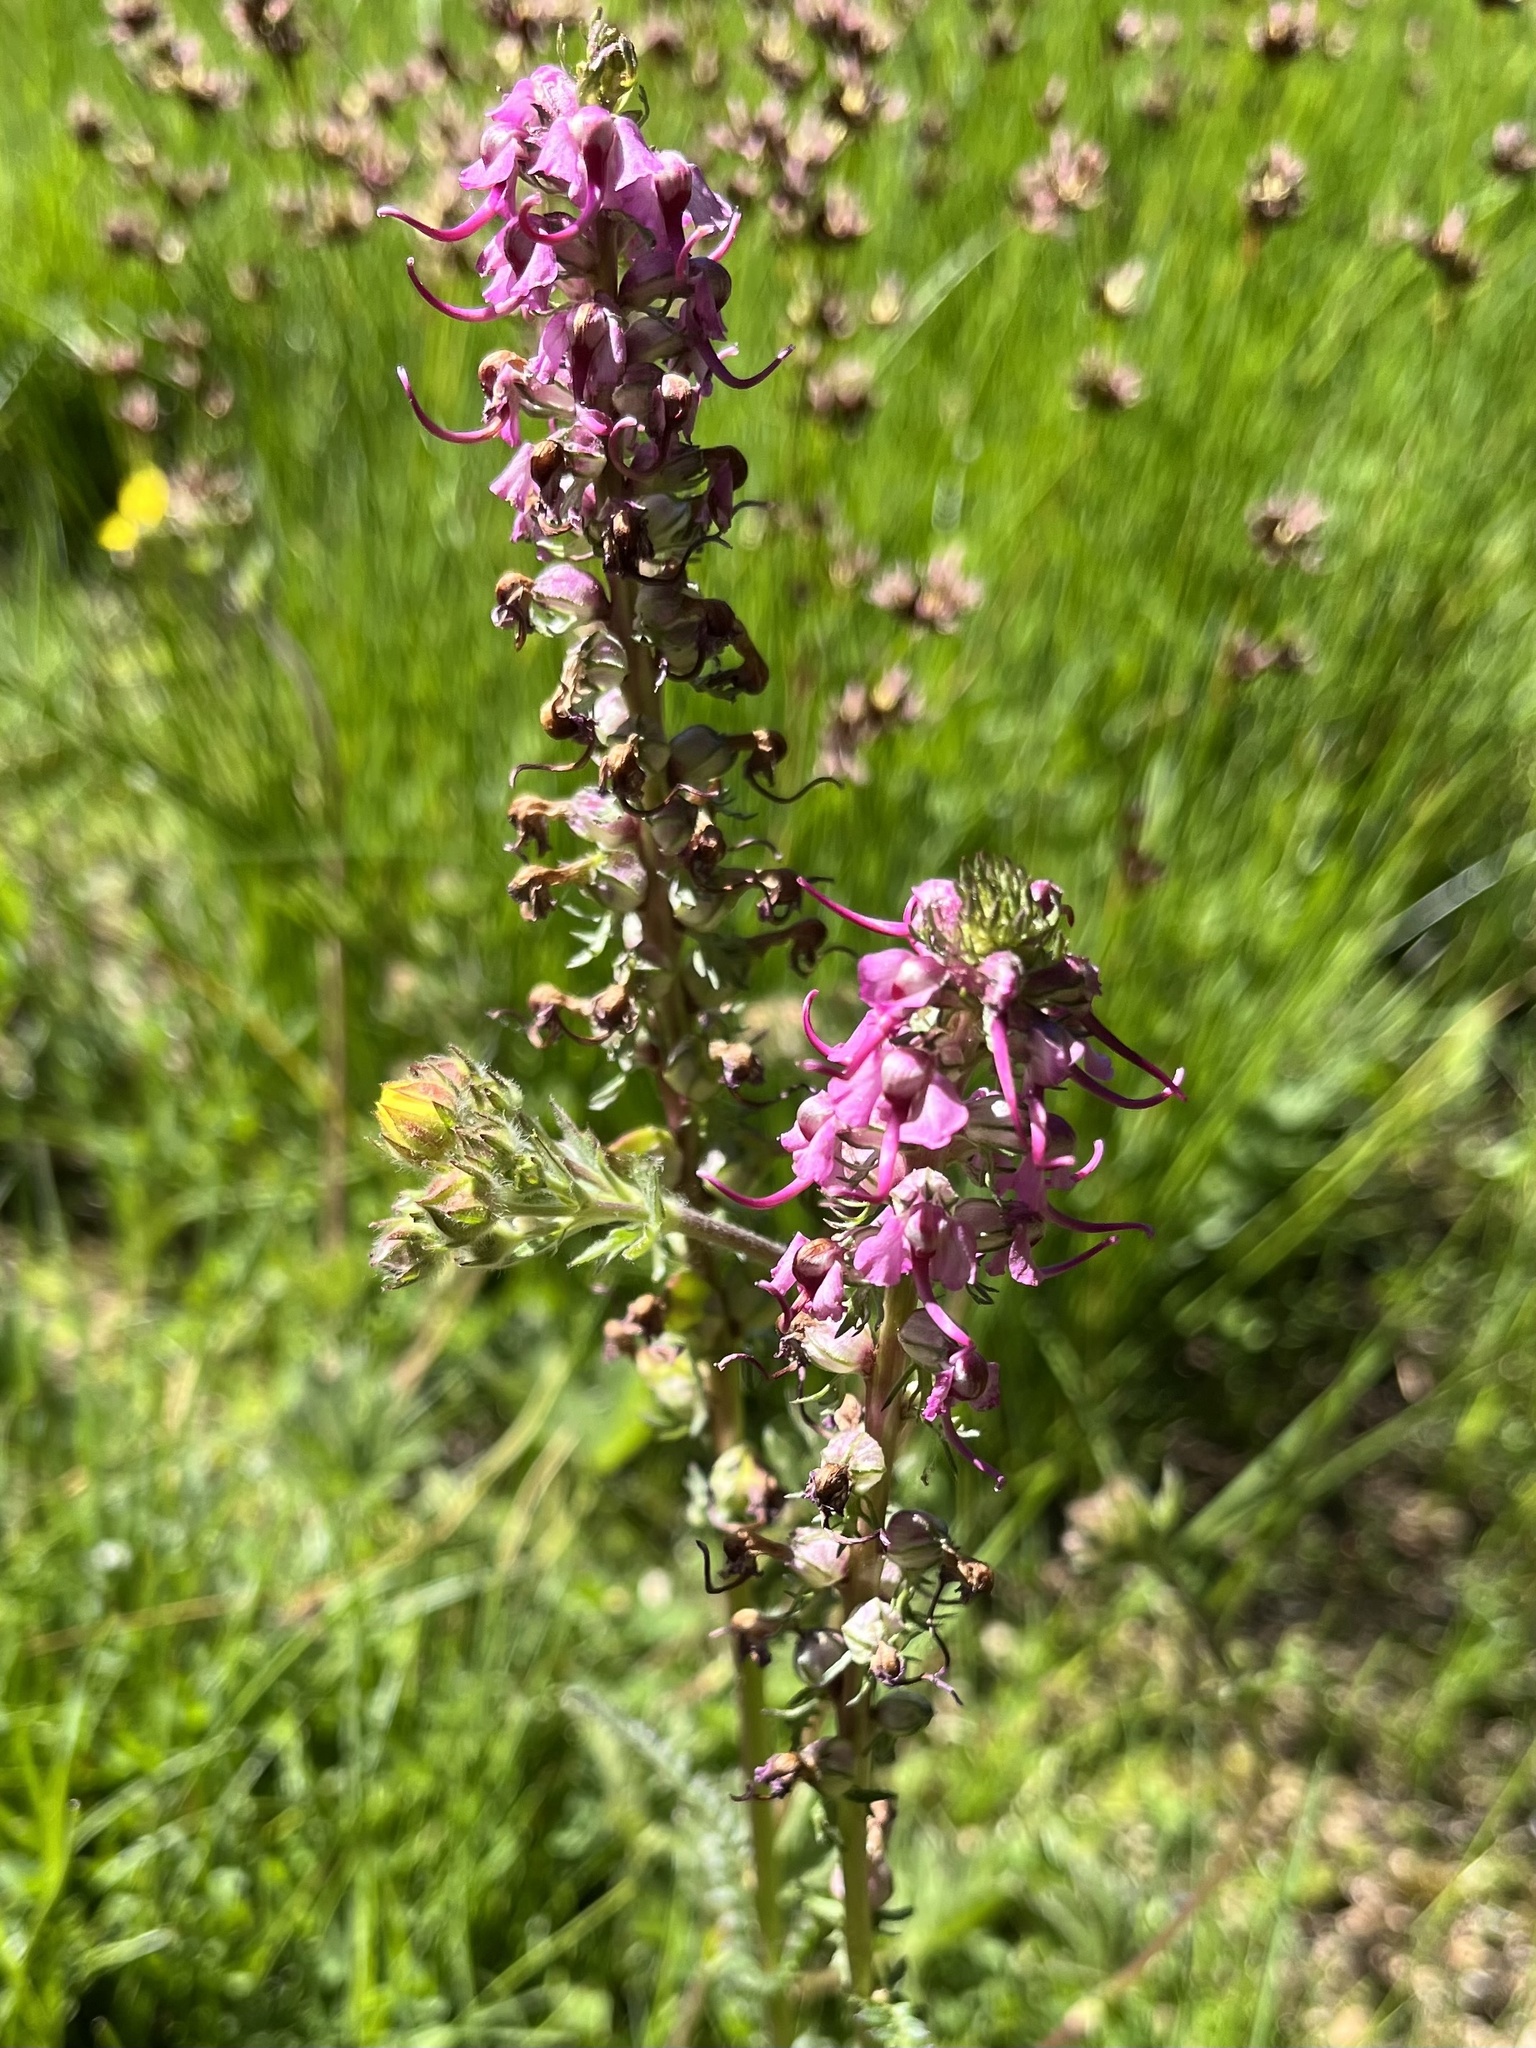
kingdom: Plantae
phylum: Tracheophyta
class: Magnoliopsida
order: Lamiales
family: Orobanchaceae
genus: Pedicularis
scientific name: Pedicularis groenlandica
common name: Elephant's-head
